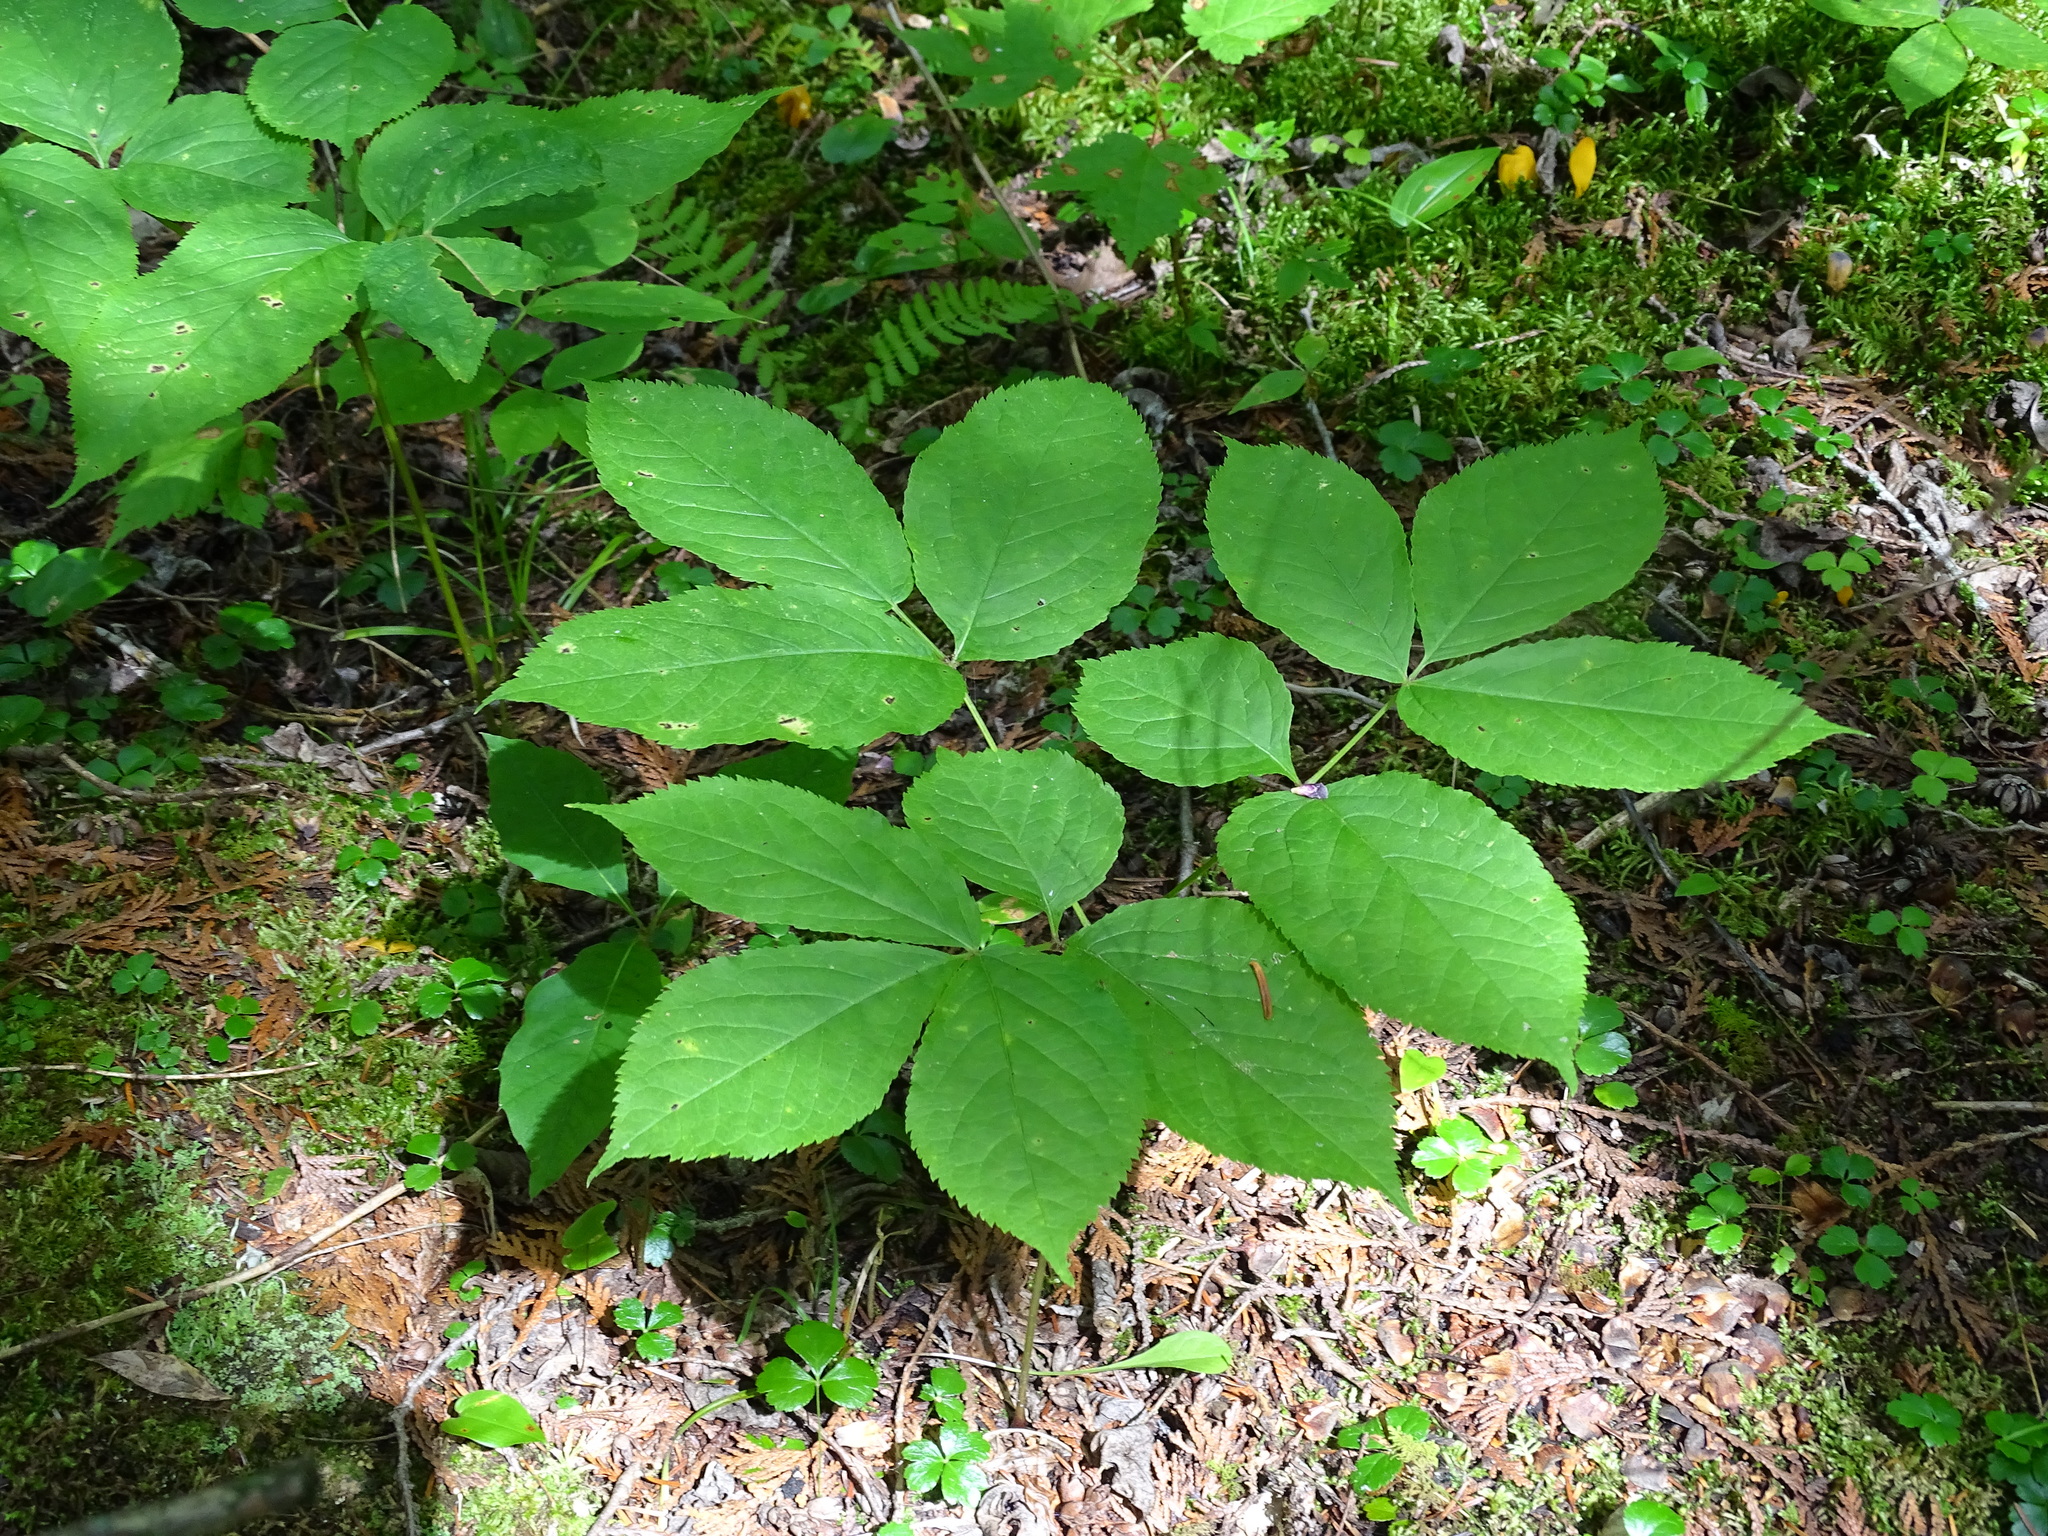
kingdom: Plantae
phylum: Tracheophyta
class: Magnoliopsida
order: Apiales
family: Araliaceae
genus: Aralia
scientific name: Aralia nudicaulis
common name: Wild sarsaparilla
